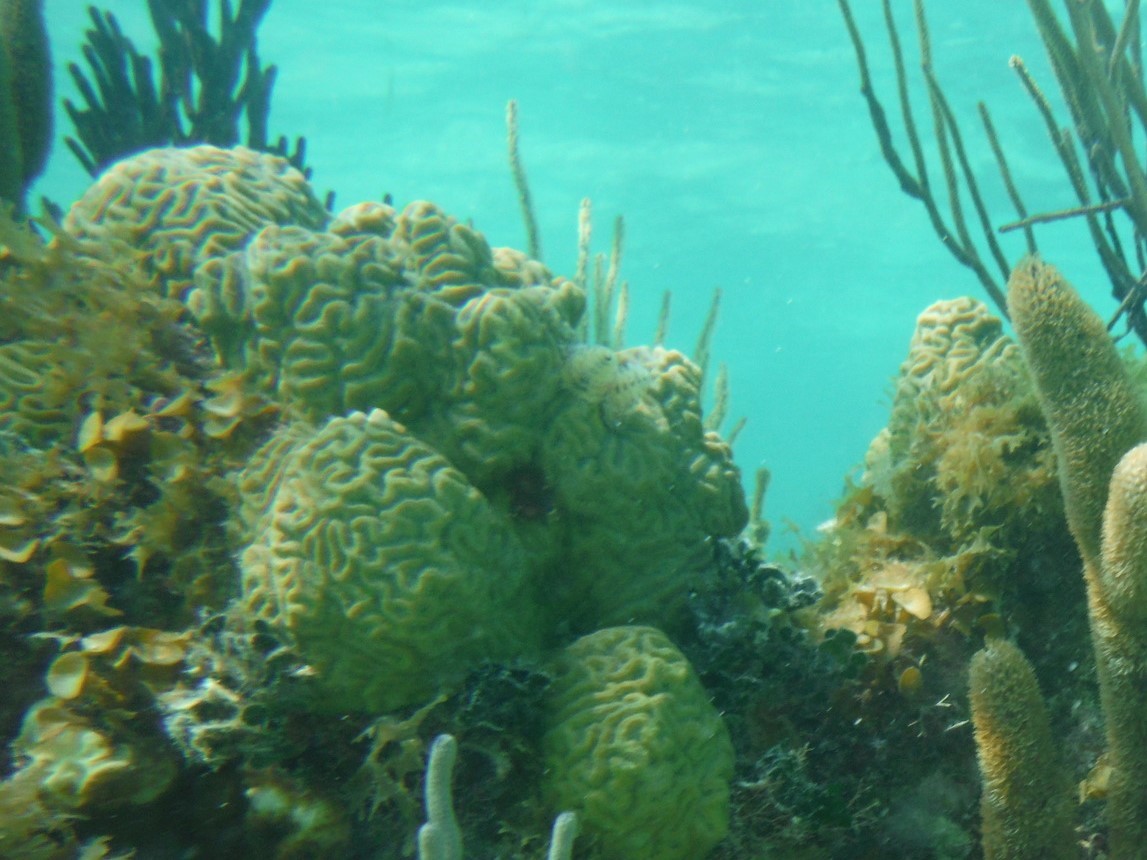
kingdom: Animalia
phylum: Cnidaria
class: Anthozoa
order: Scleractinia
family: Faviidae
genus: Pseudodiploria
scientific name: Pseudodiploria clivosa
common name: Knobby brain coral
